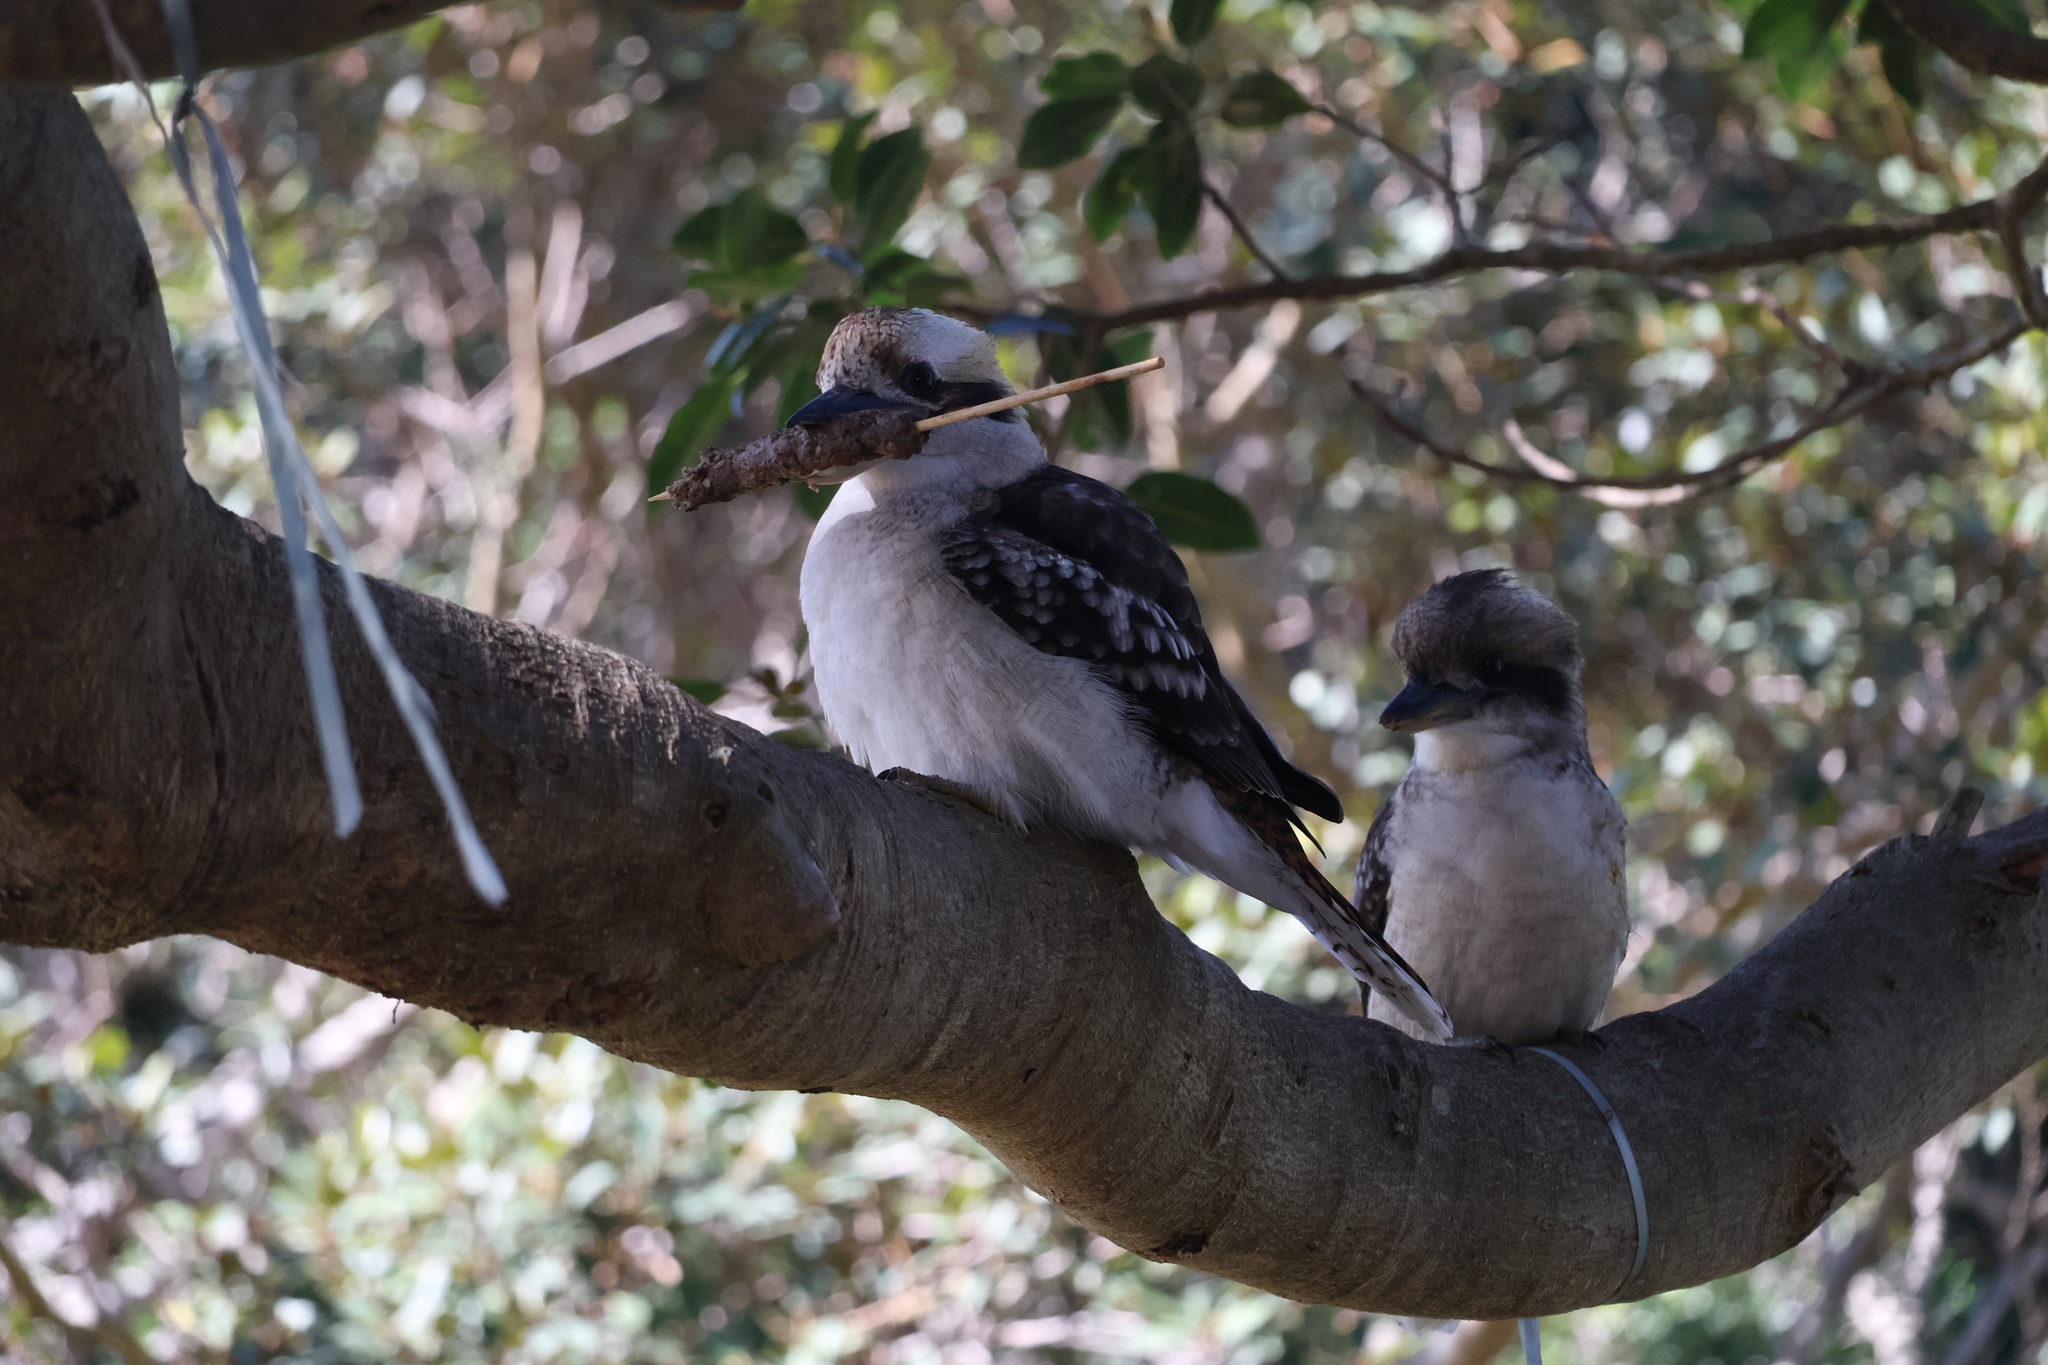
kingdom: Animalia
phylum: Chordata
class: Aves
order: Coraciiformes
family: Alcedinidae
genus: Dacelo
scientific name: Dacelo novaeguineae
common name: Laughing kookaburra
